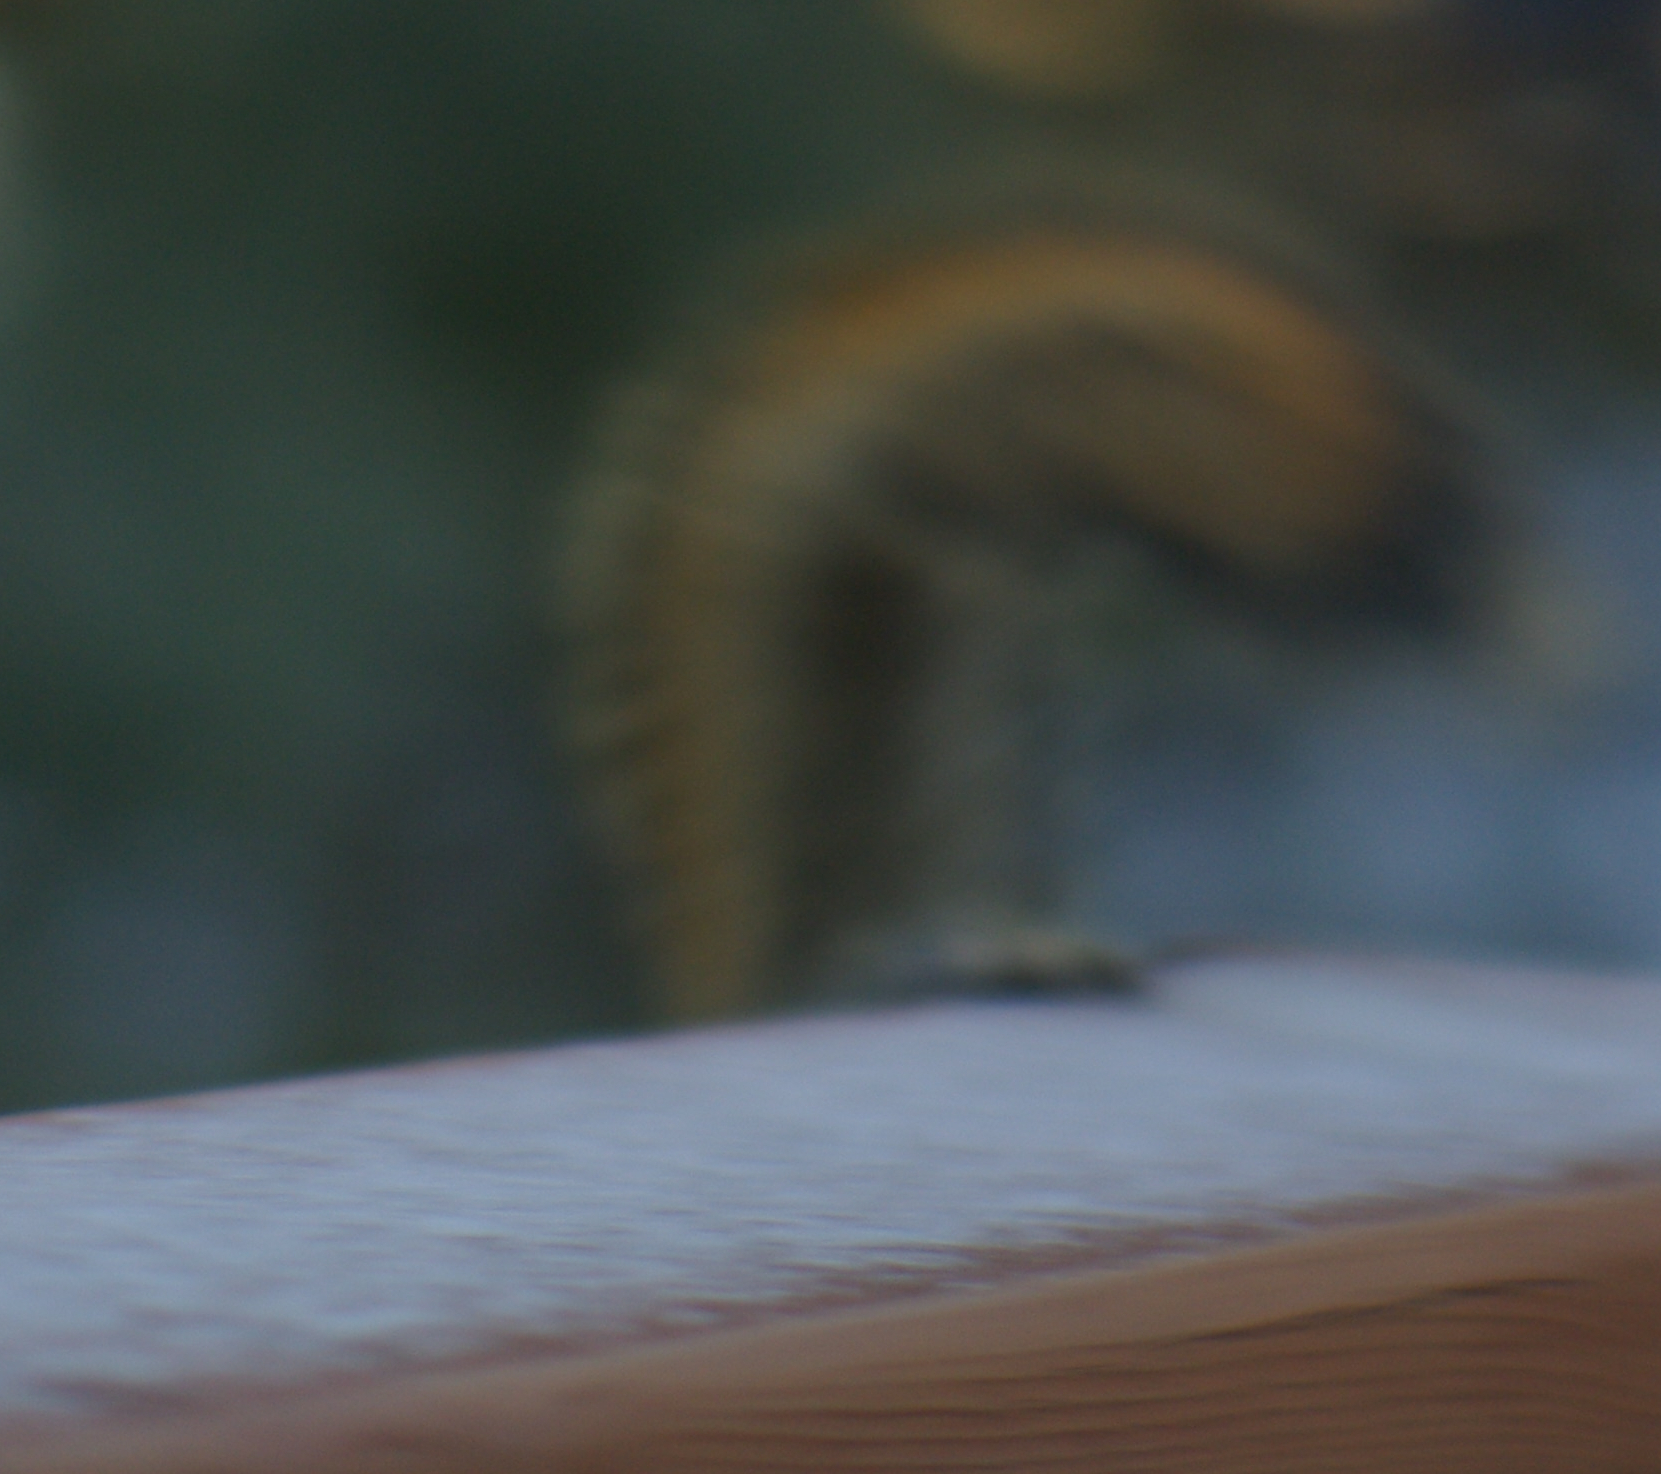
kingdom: Animalia
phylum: Chordata
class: Mammalia
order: Rodentia
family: Sciuridae
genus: Tamiasciurus
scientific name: Tamiasciurus hudsonicus
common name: Red squirrel
